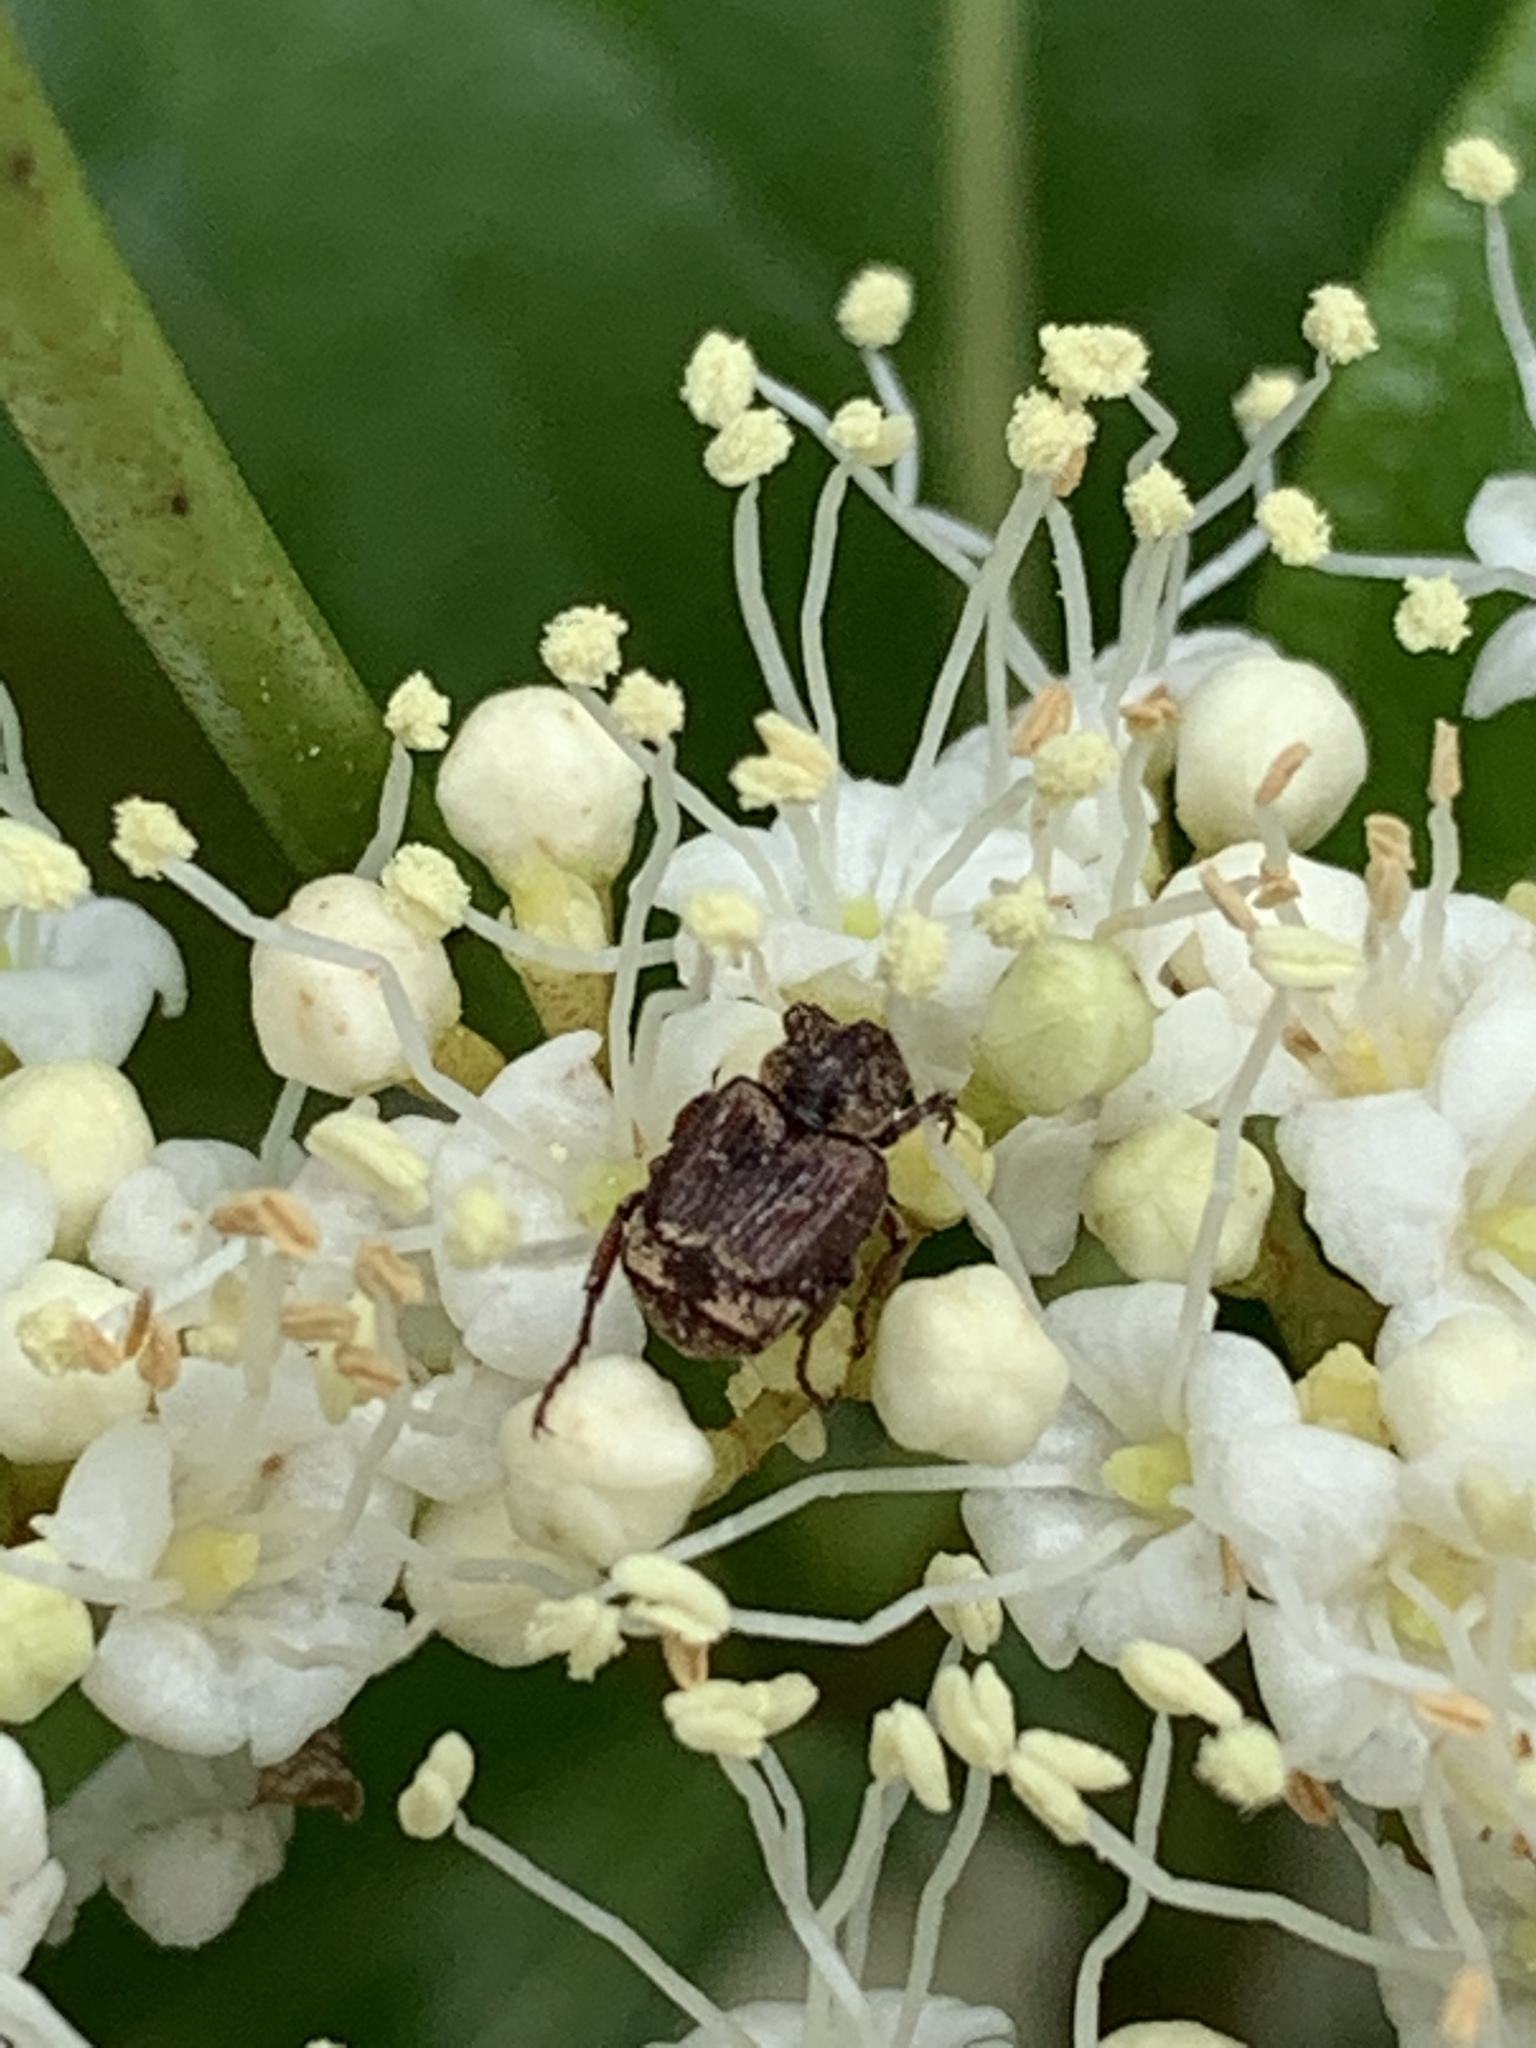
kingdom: Animalia
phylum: Arthropoda
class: Insecta
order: Coleoptera
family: Scarabaeidae
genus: Valgus
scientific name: Valgus canaliculatus
